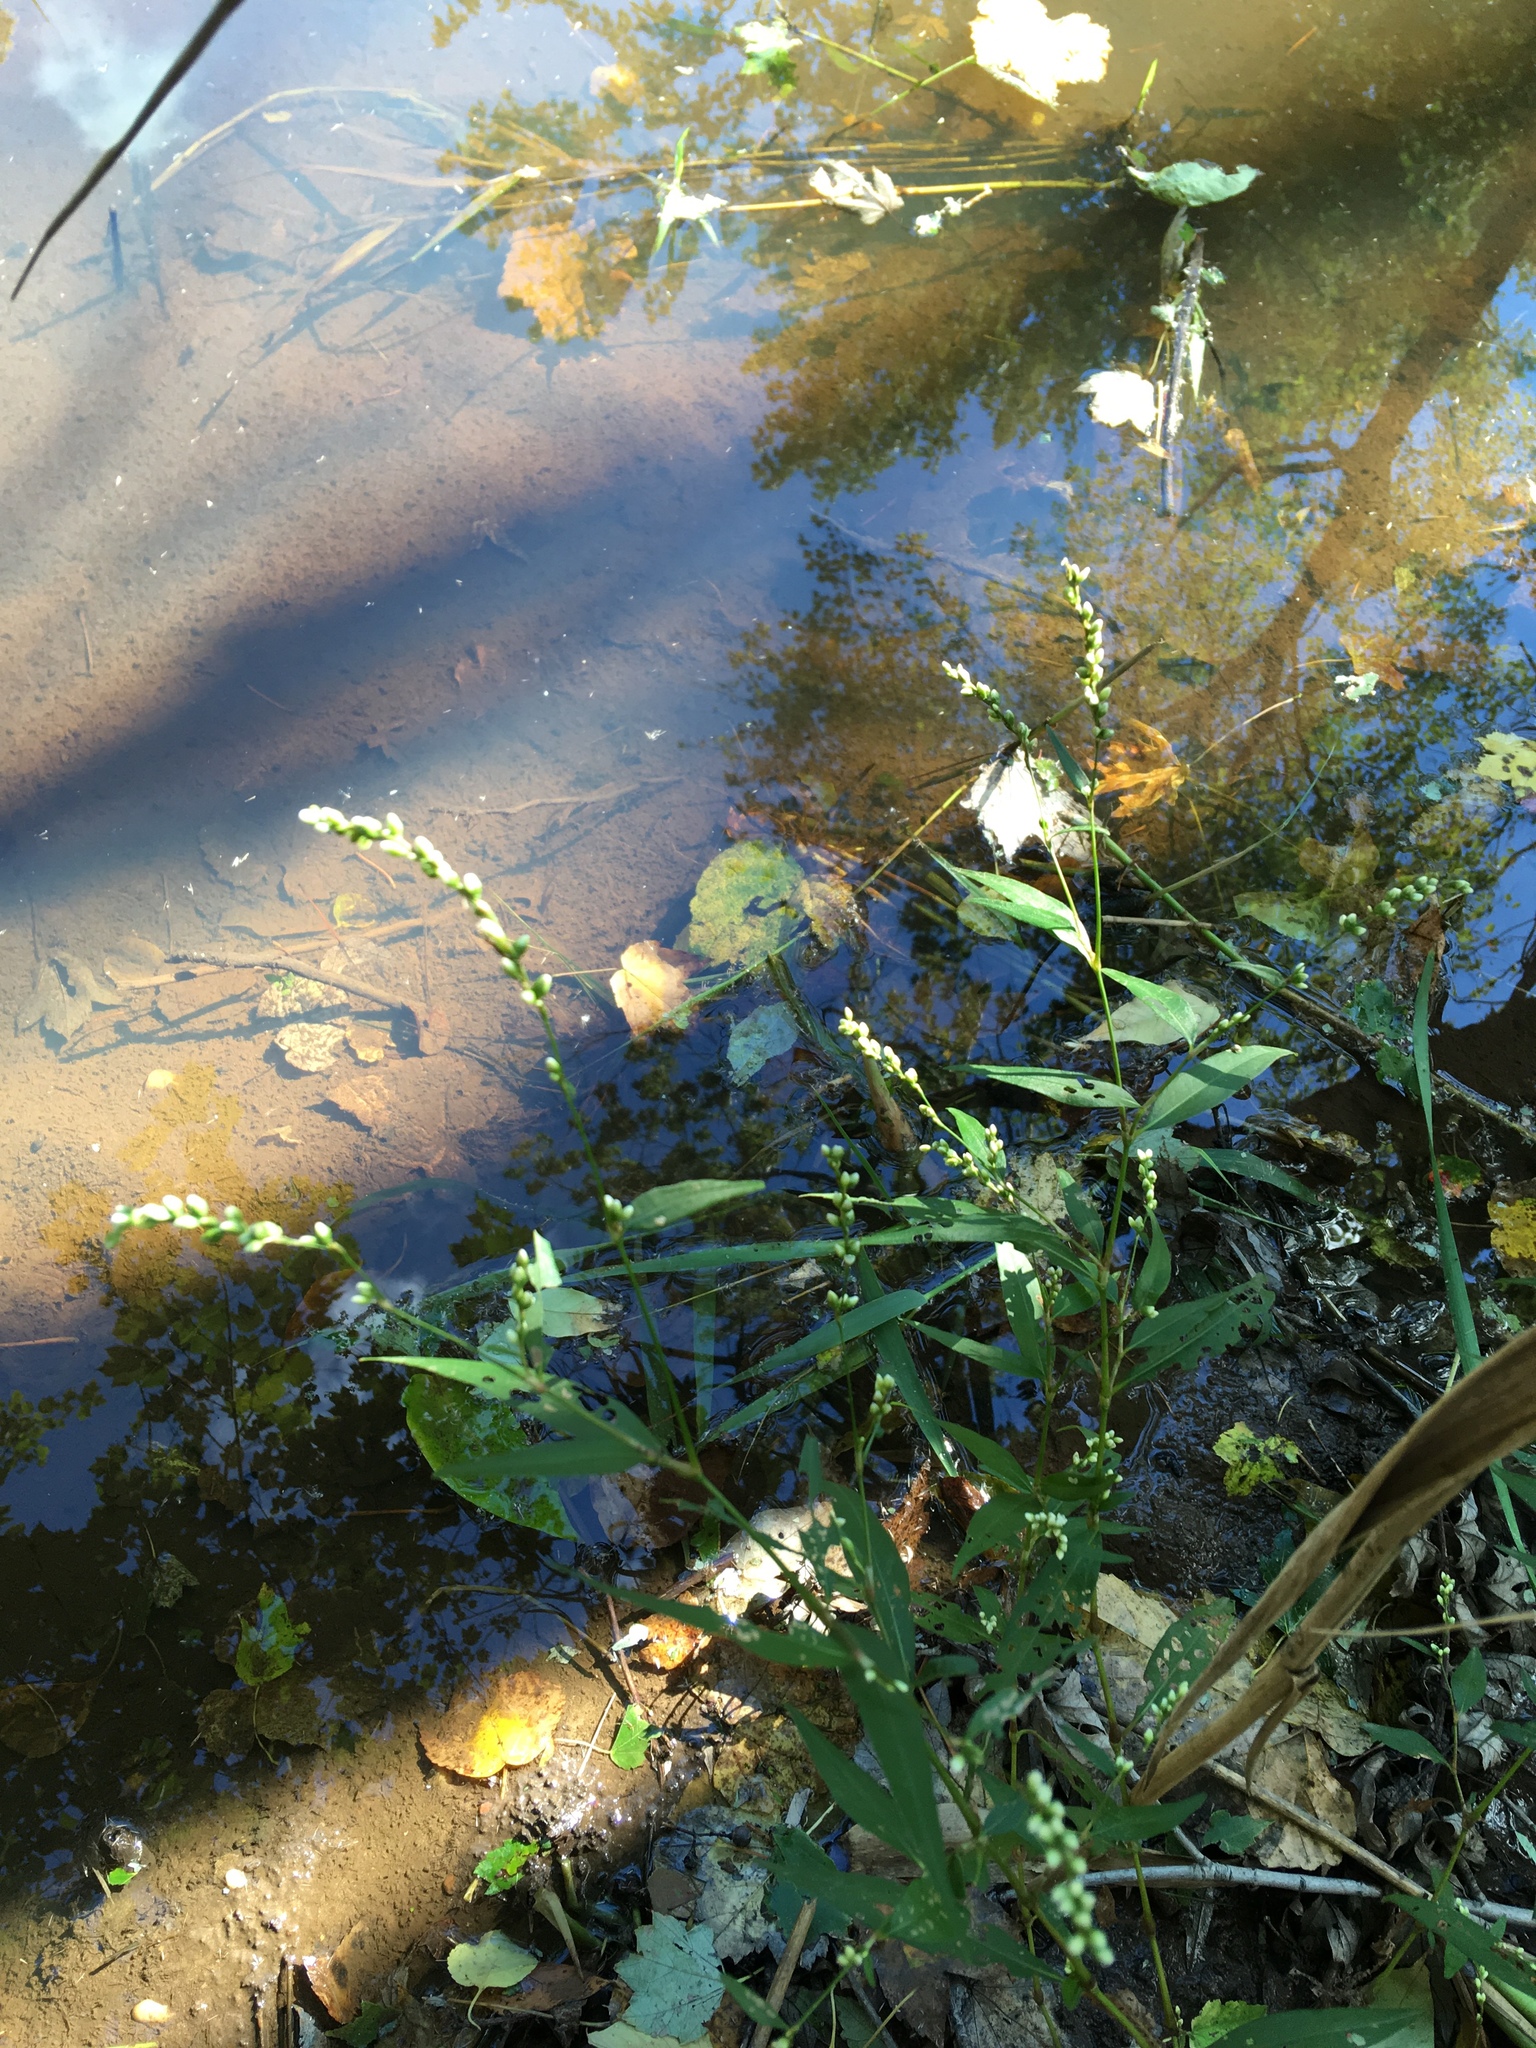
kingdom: Plantae
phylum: Tracheophyta
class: Magnoliopsida
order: Caryophyllales
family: Polygonaceae
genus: Persicaria
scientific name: Persicaria punctata
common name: Dotted smartweed
